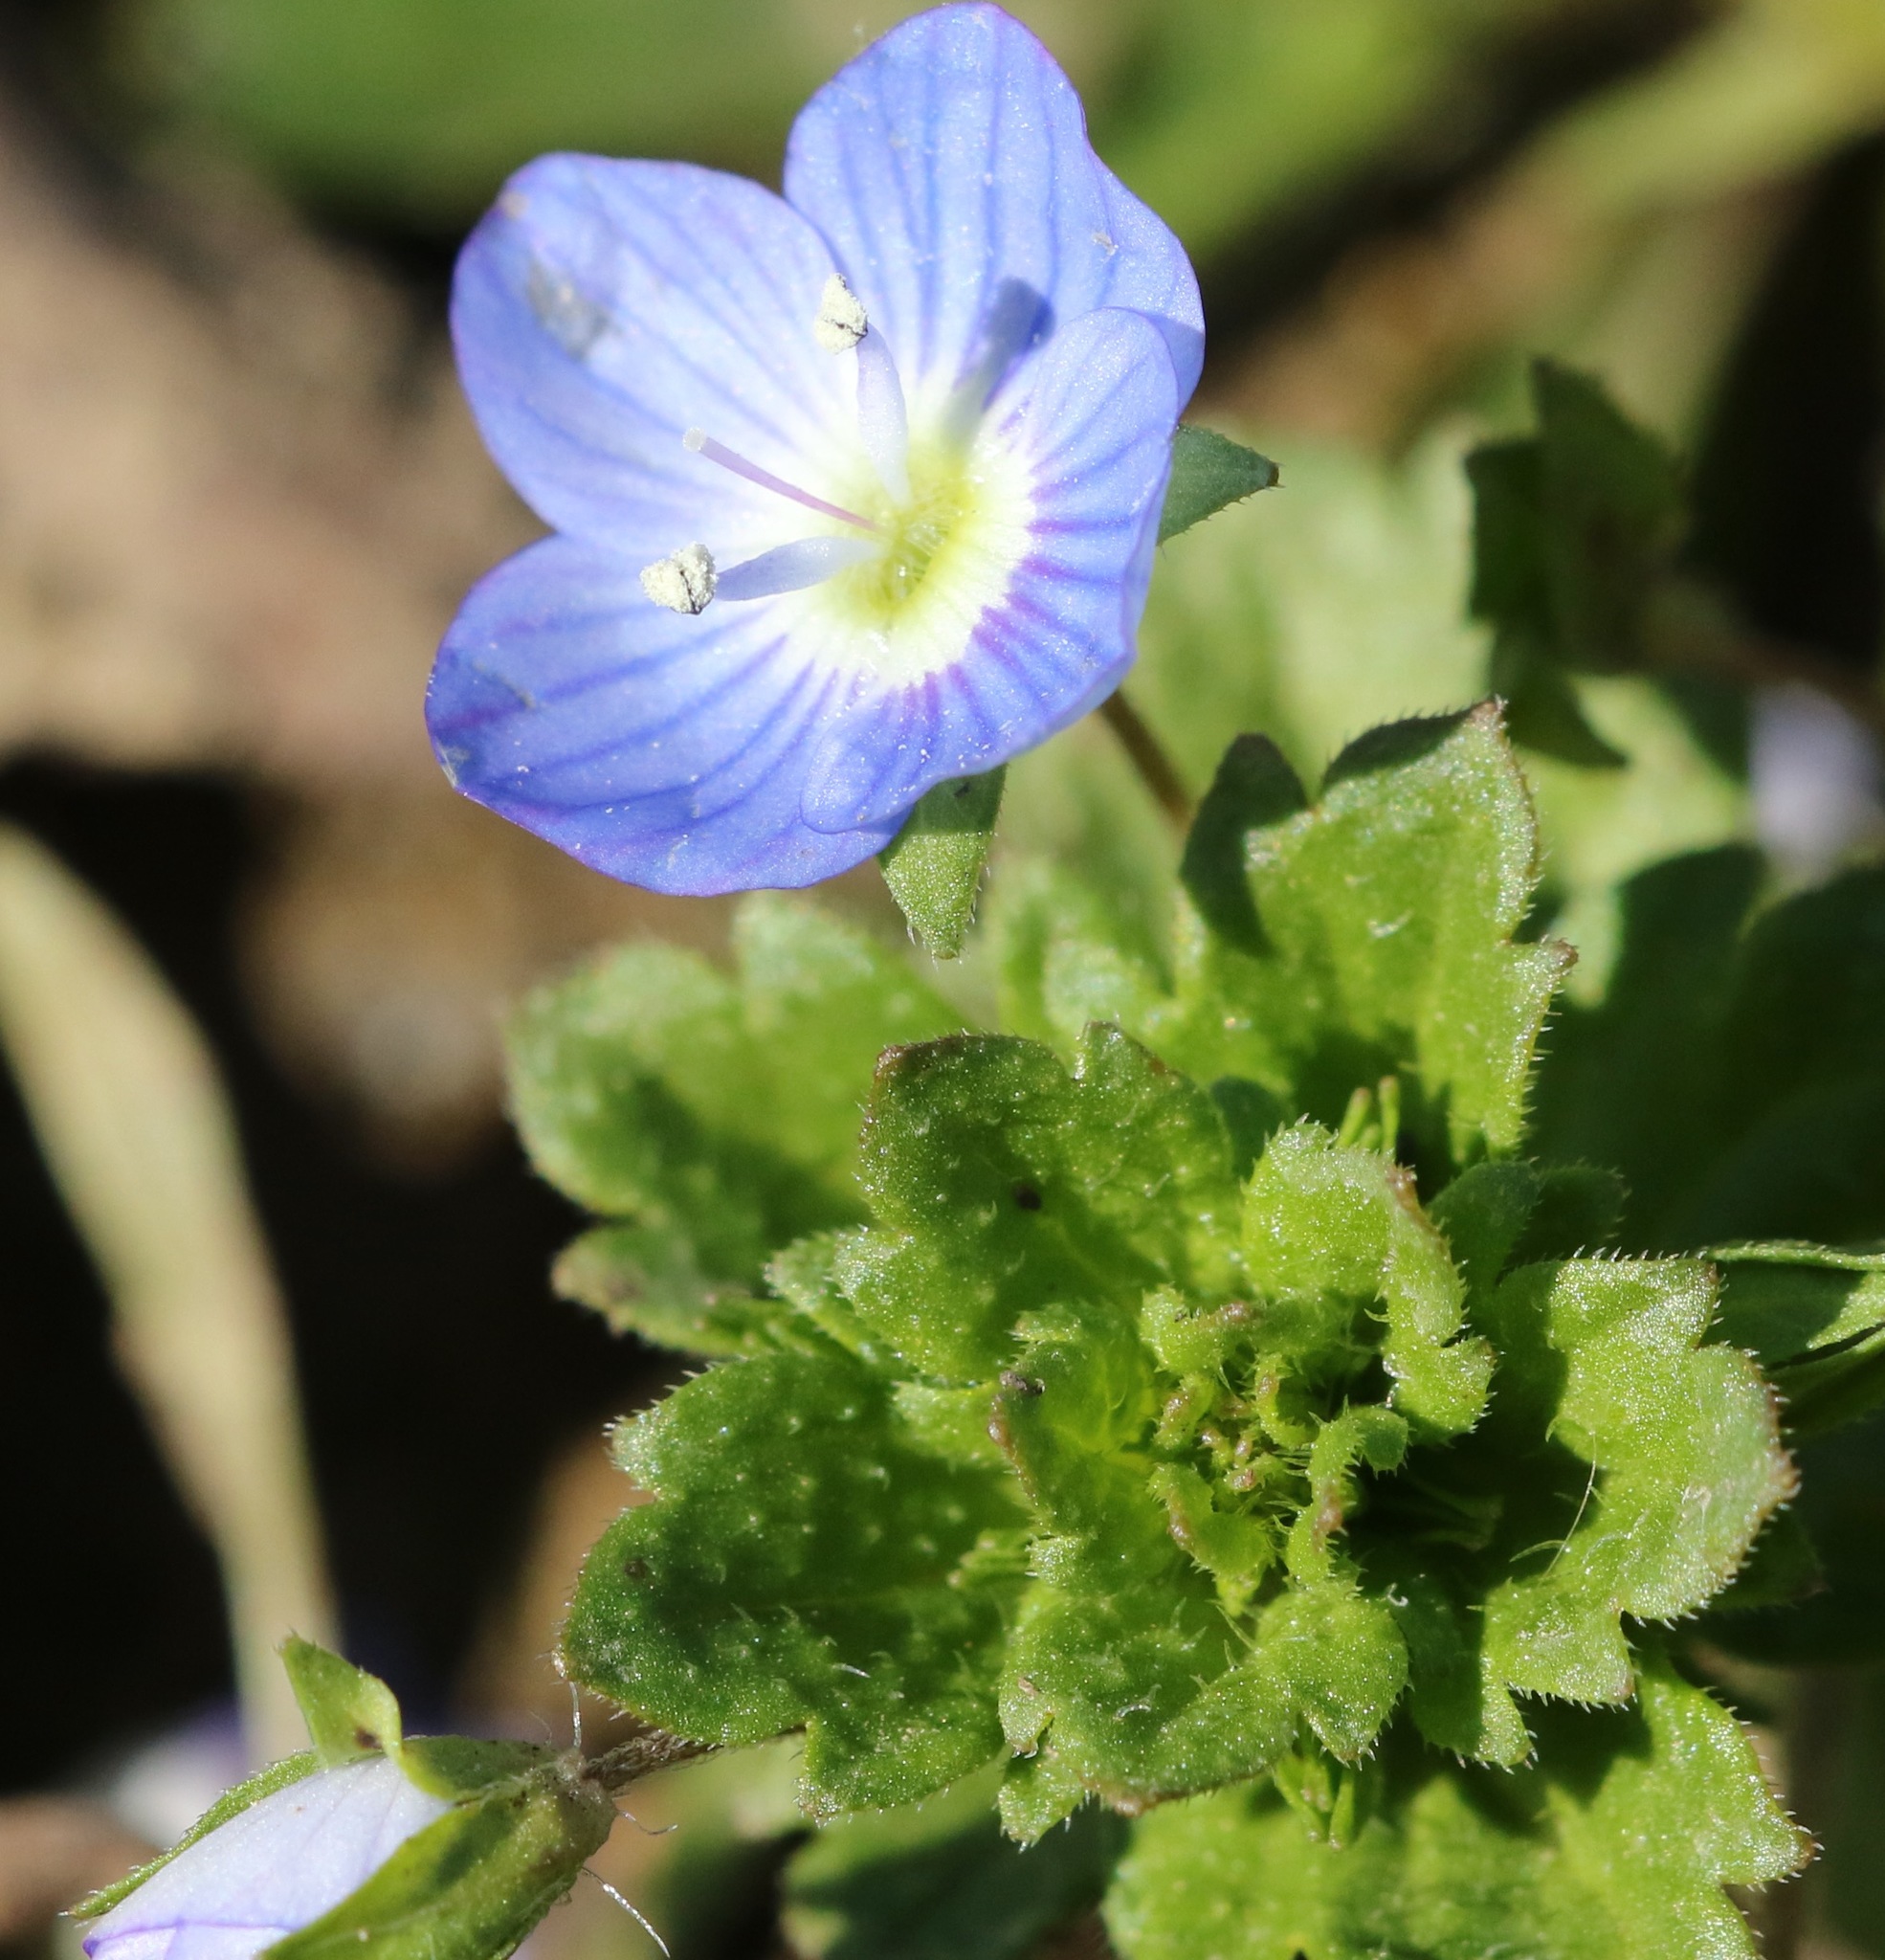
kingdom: Plantae
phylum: Tracheophyta
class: Magnoliopsida
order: Lamiales
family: Plantaginaceae
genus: Veronica
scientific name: Veronica persica
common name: Common field-speedwell
